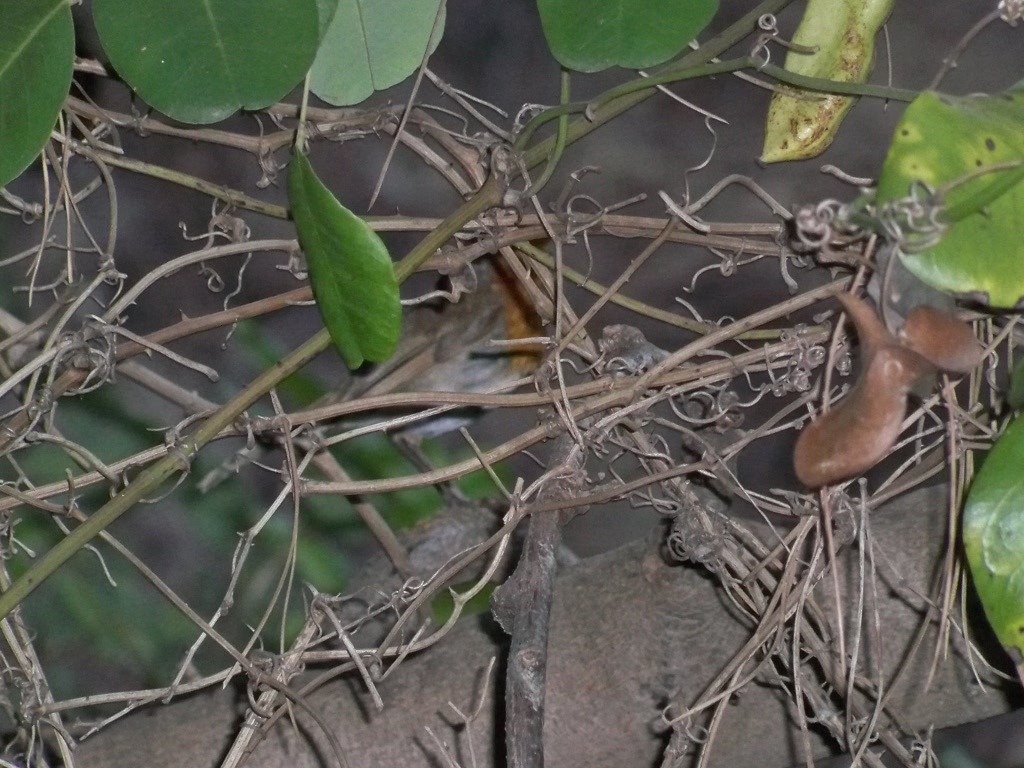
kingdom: Animalia
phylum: Chordata
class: Aves
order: Passeriformes
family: Muscicapidae
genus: Erithacus
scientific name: Erithacus rubecula
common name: European robin
